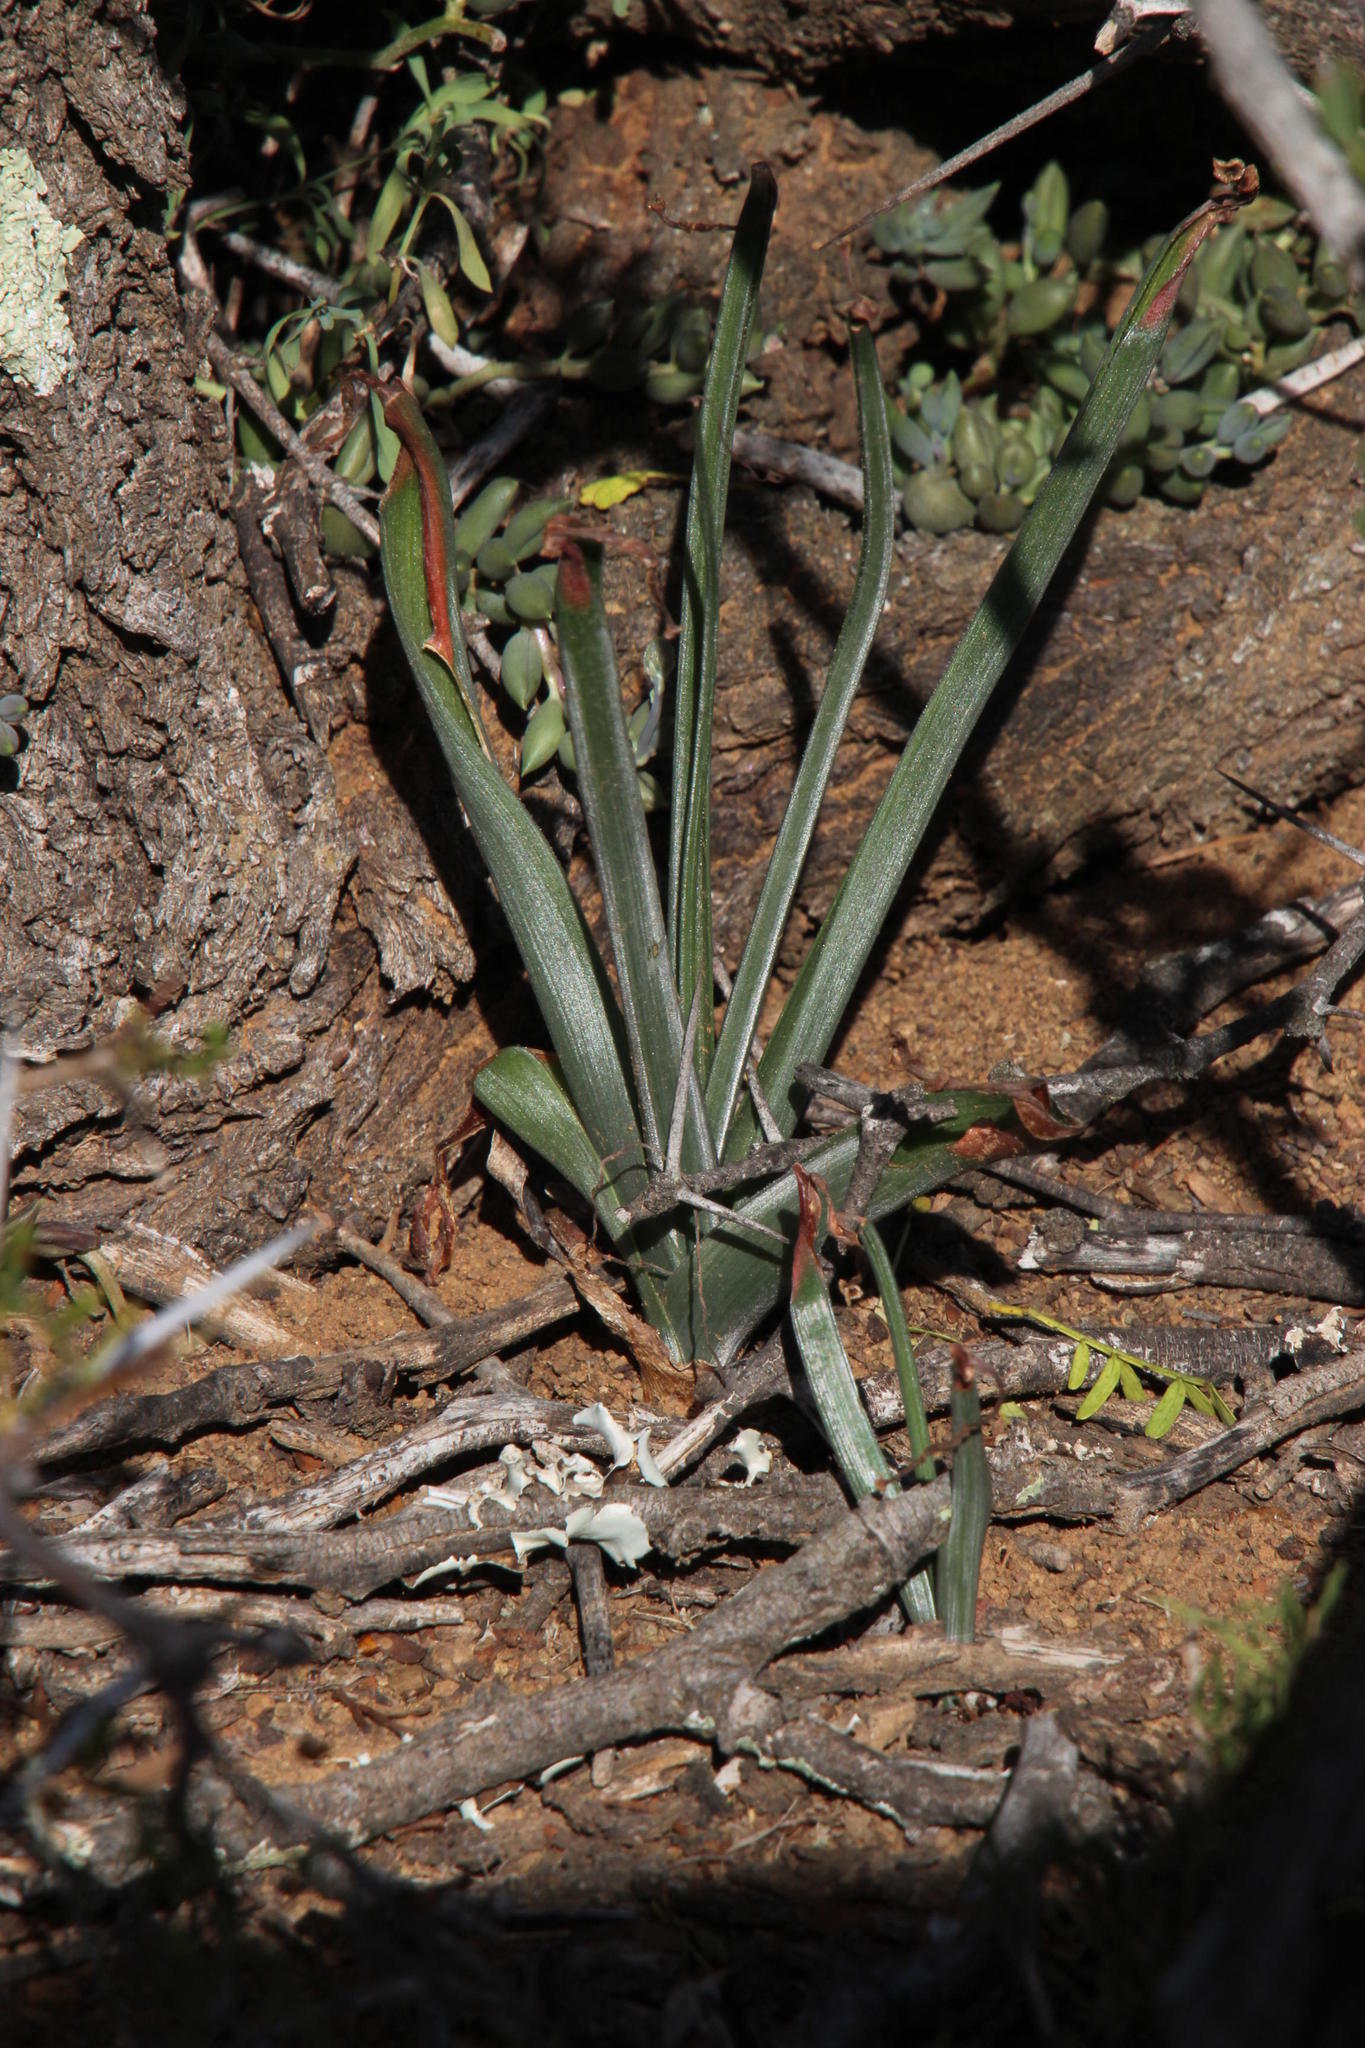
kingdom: Plantae
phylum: Tracheophyta
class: Liliopsida
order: Asparagales
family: Asparagaceae
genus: Albuca
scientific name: Albuca setosa
